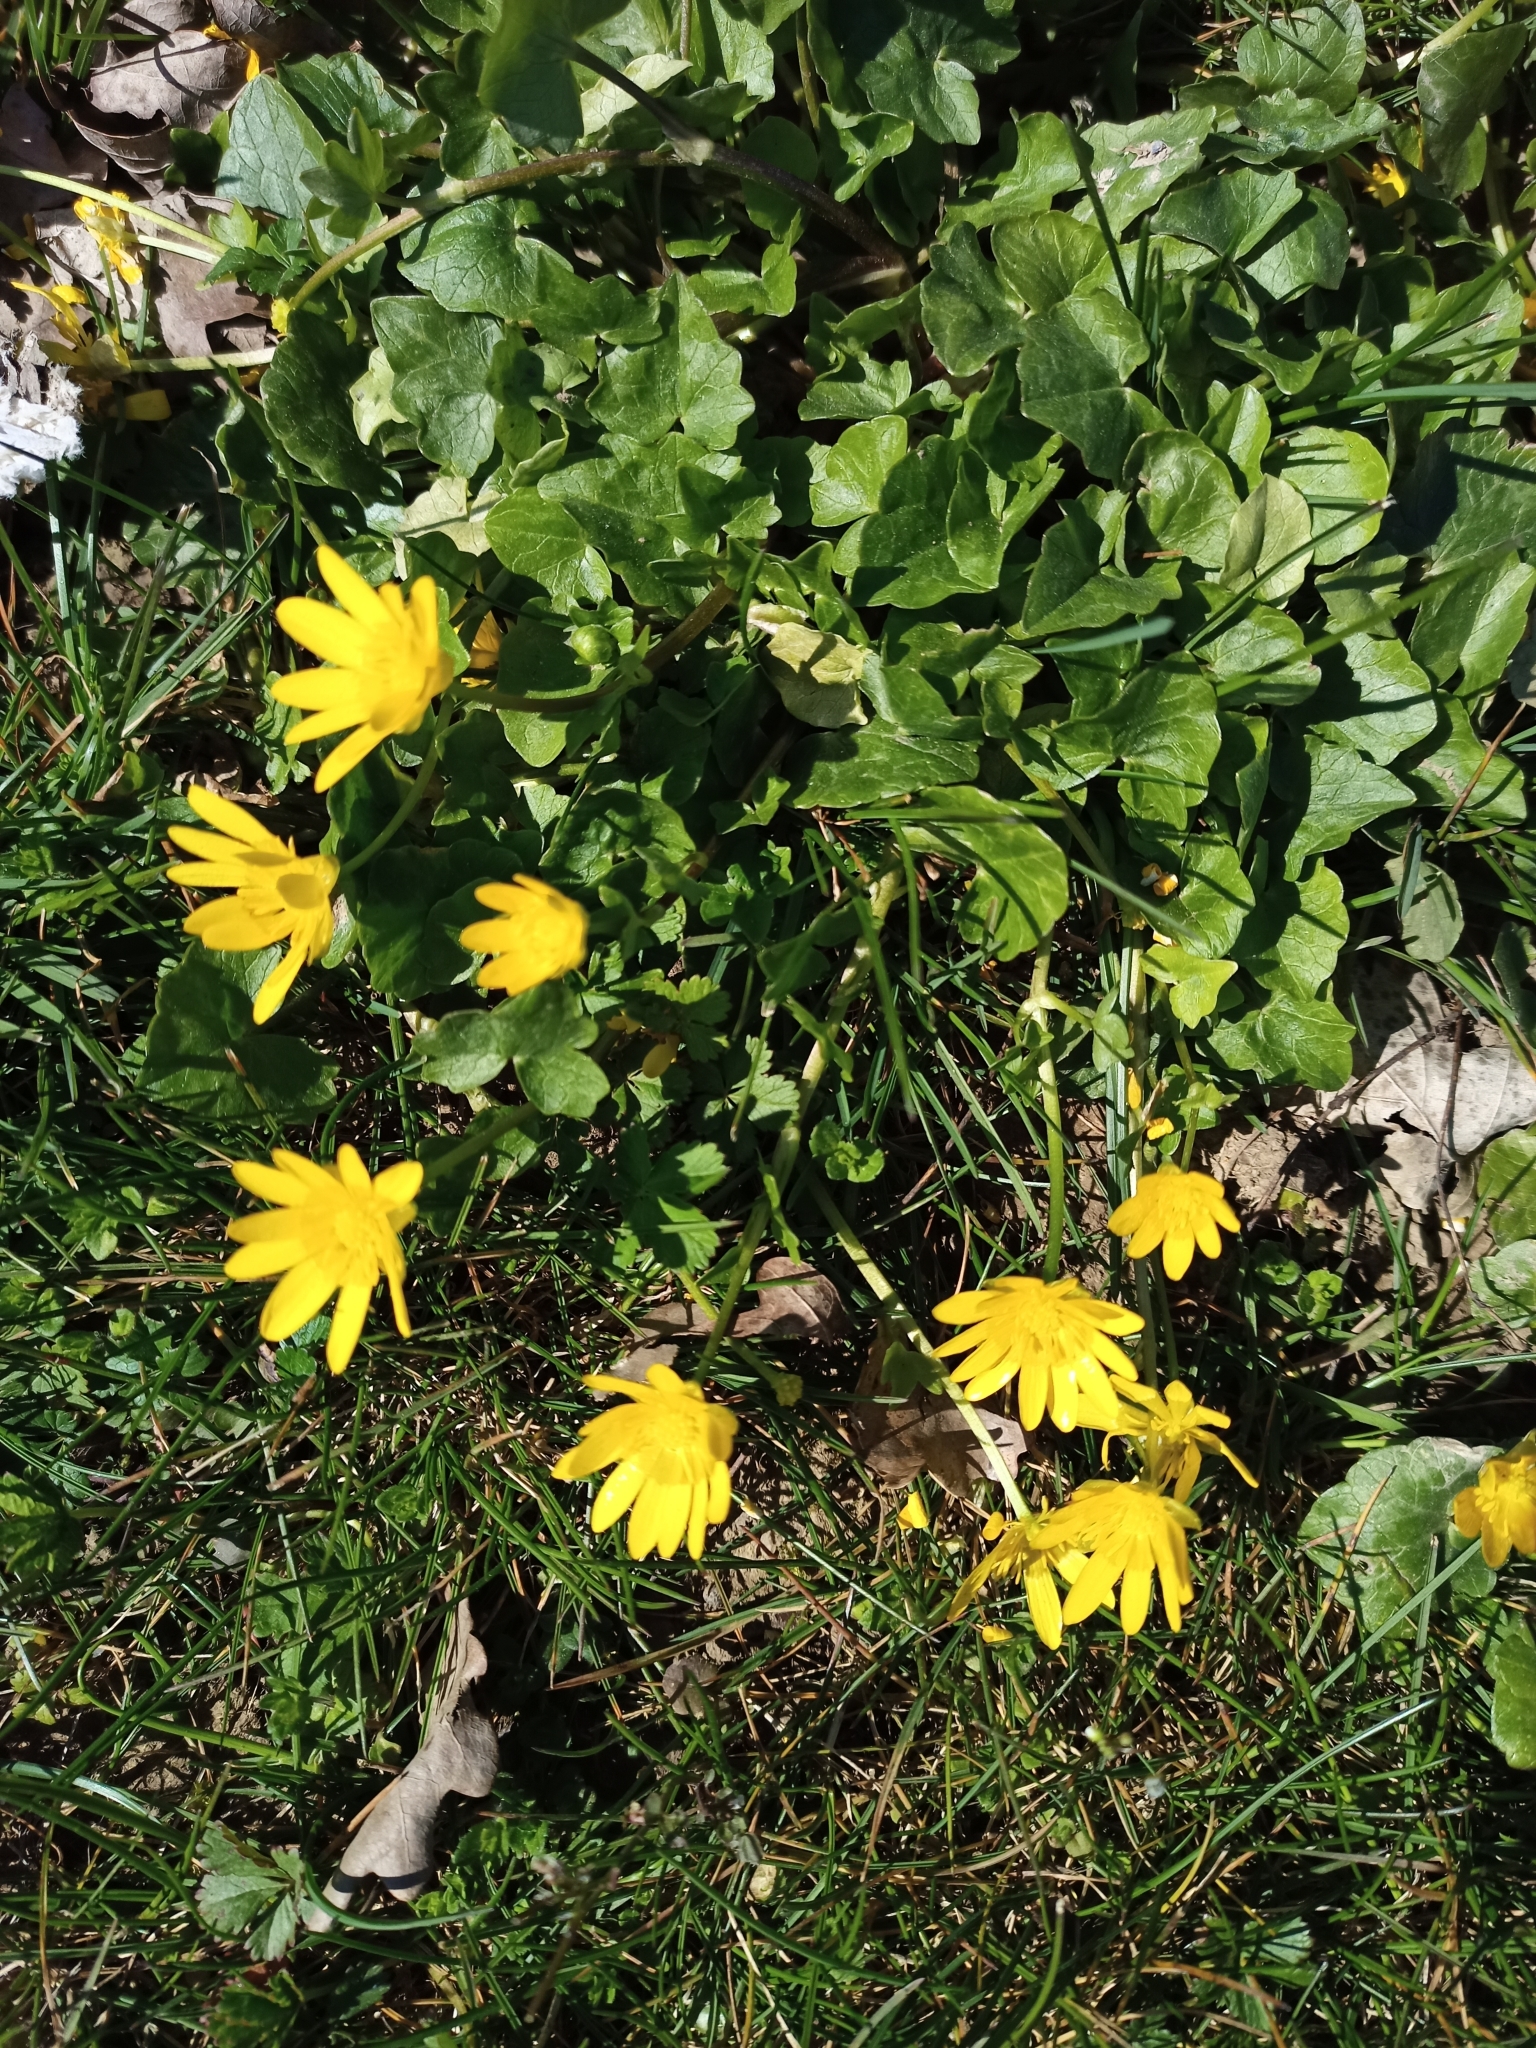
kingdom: Plantae
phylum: Tracheophyta
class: Magnoliopsida
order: Ranunculales
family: Ranunculaceae
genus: Ficaria
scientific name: Ficaria verna
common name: Lesser celandine
